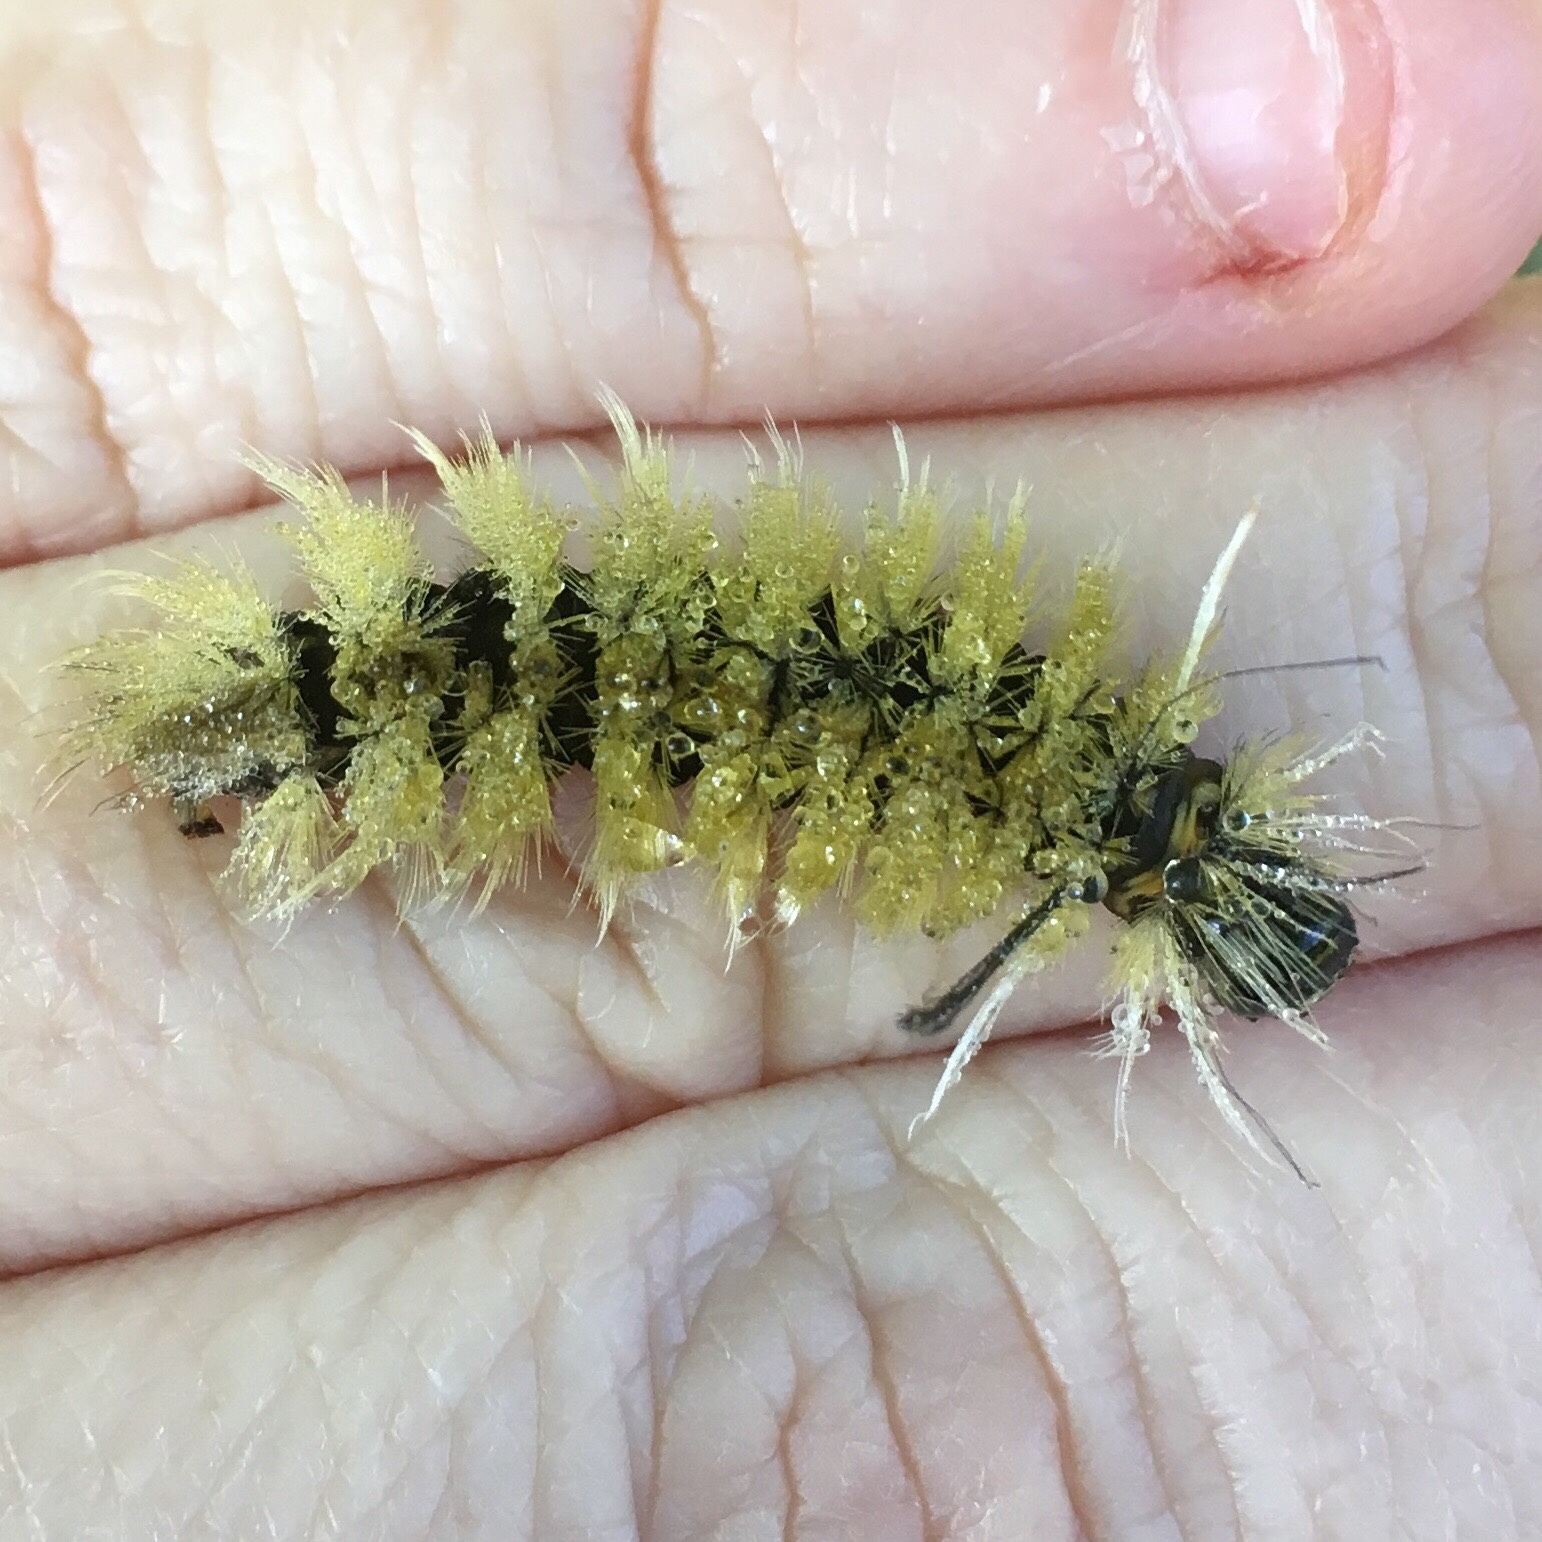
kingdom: Animalia
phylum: Arthropoda
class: Insecta
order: Lepidoptera
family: Erebidae
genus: Halysidota
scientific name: Halysidota tessellaris
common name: Banded tussock moth
